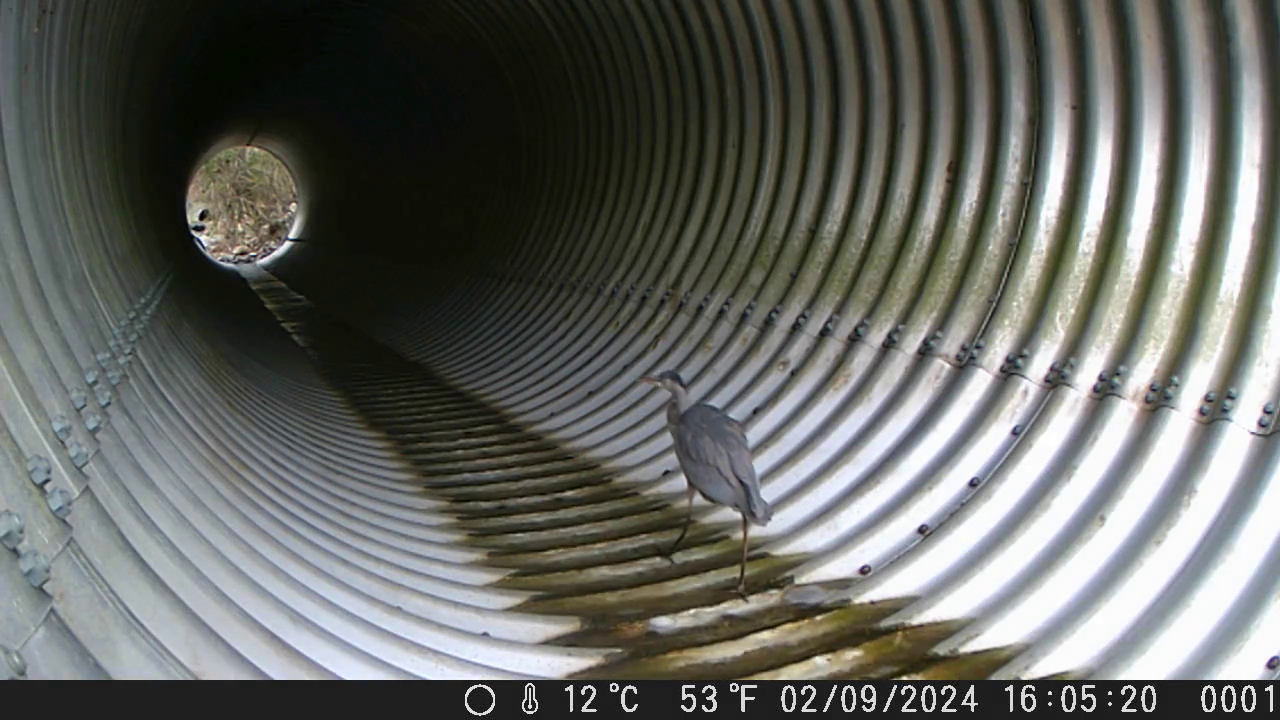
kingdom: Animalia
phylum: Chordata
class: Aves
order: Pelecaniformes
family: Ardeidae
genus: Ardea
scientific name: Ardea herodias
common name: Great blue heron
